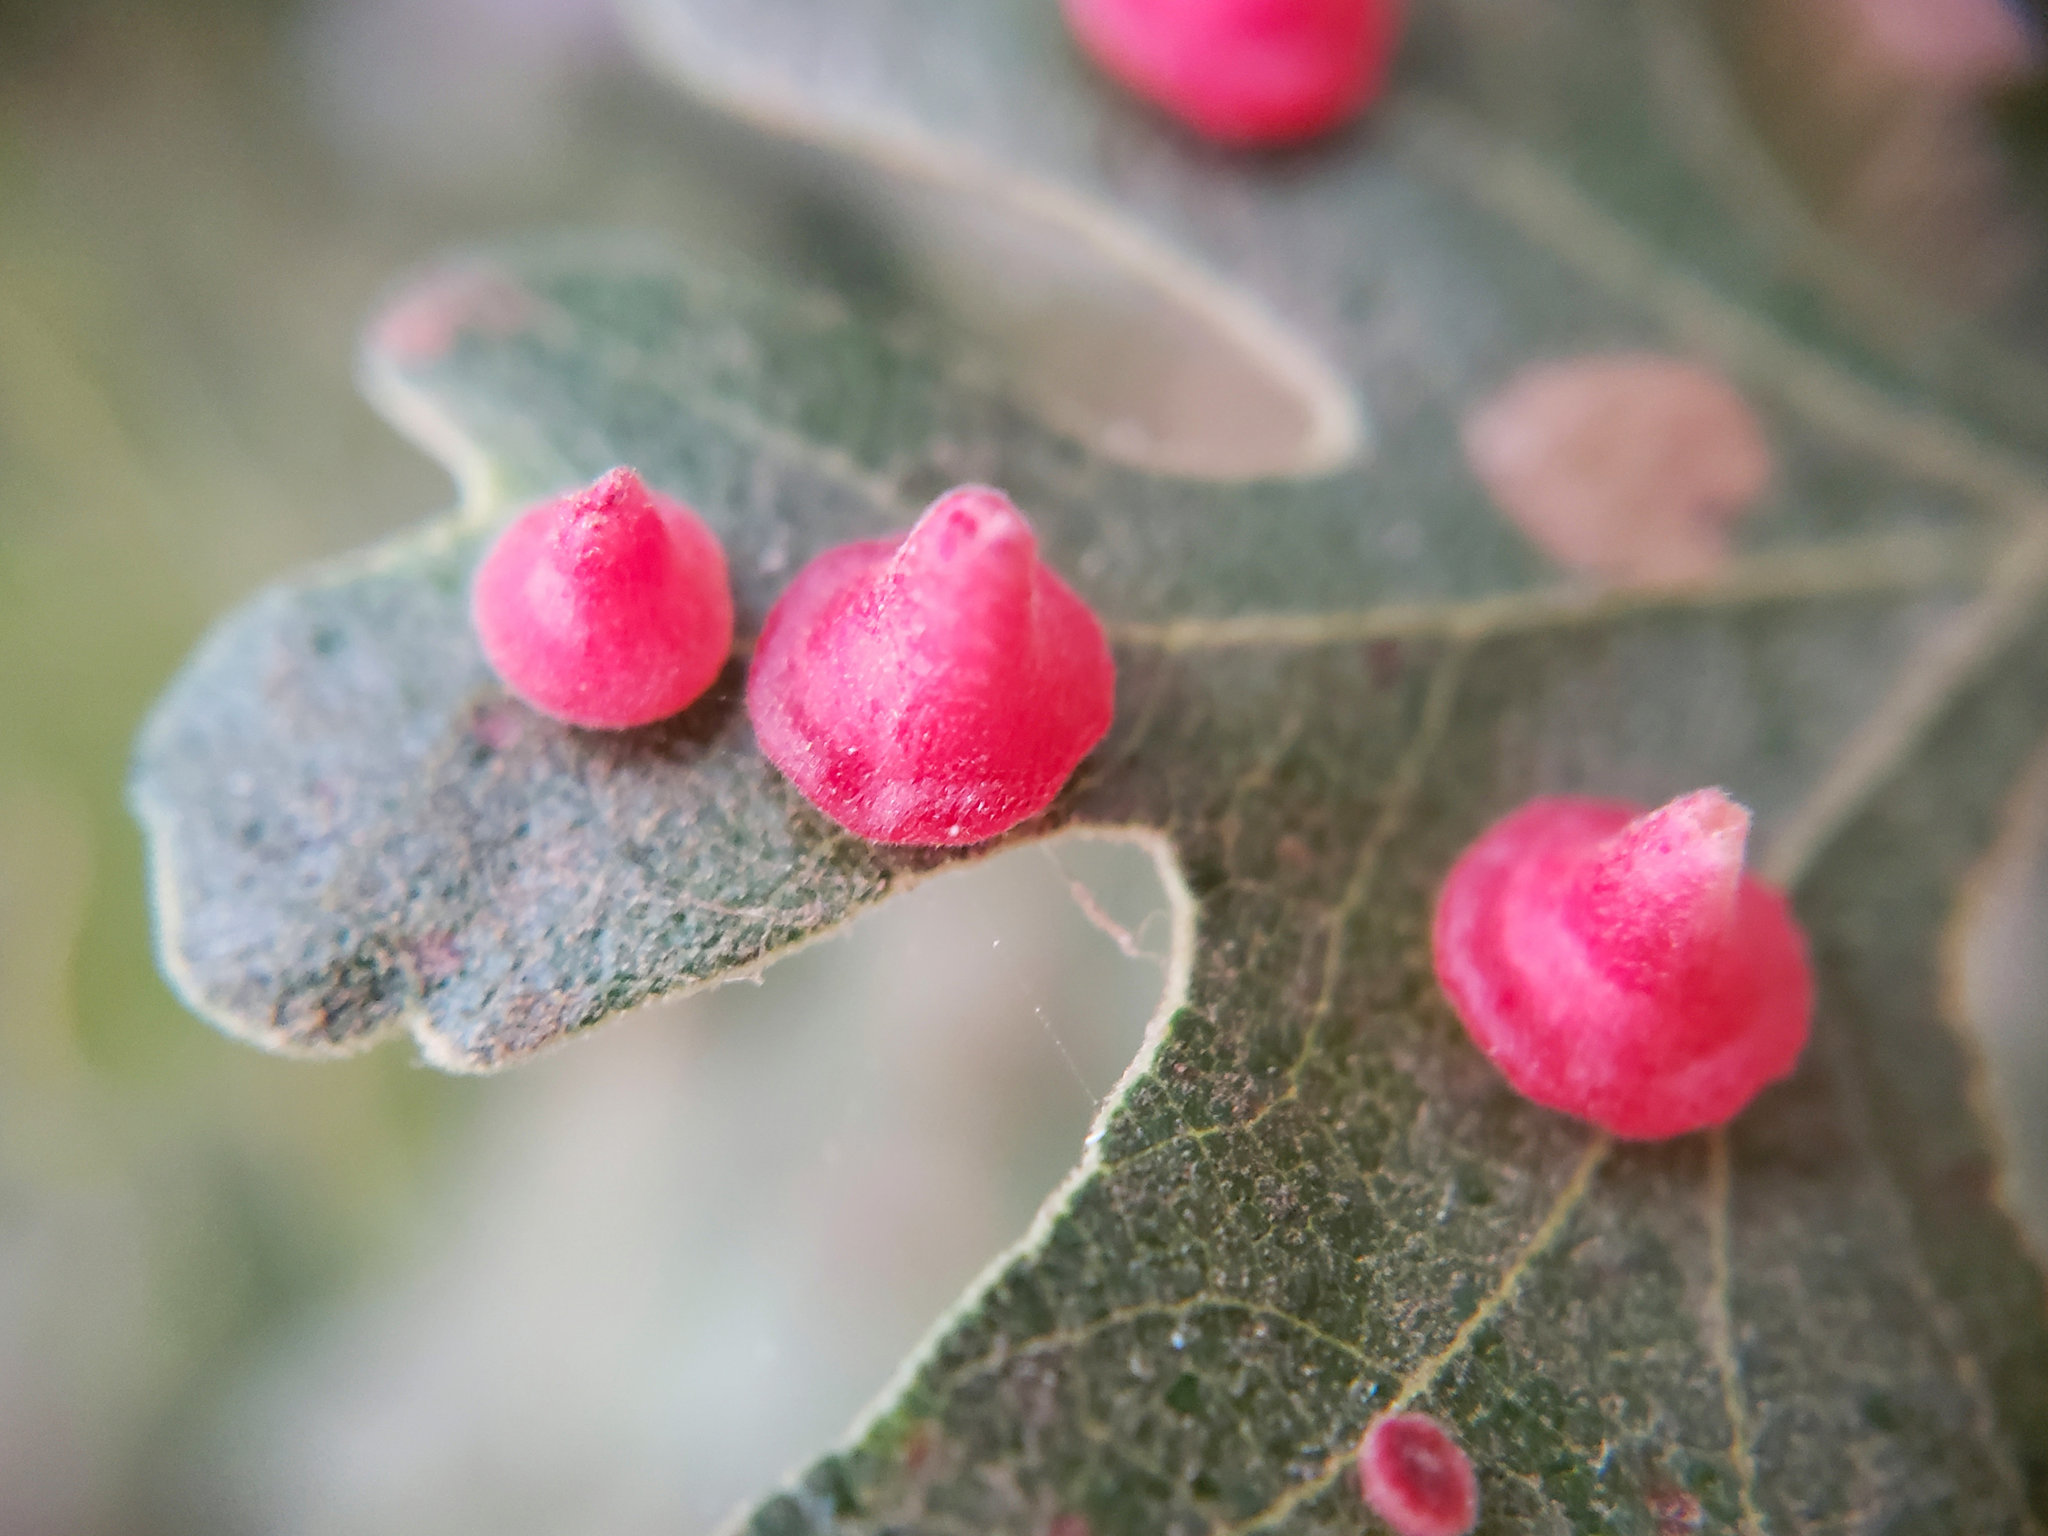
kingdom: Animalia
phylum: Arthropoda
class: Insecta
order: Hymenoptera
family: Cynipidae
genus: Andricus
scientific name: Andricus
